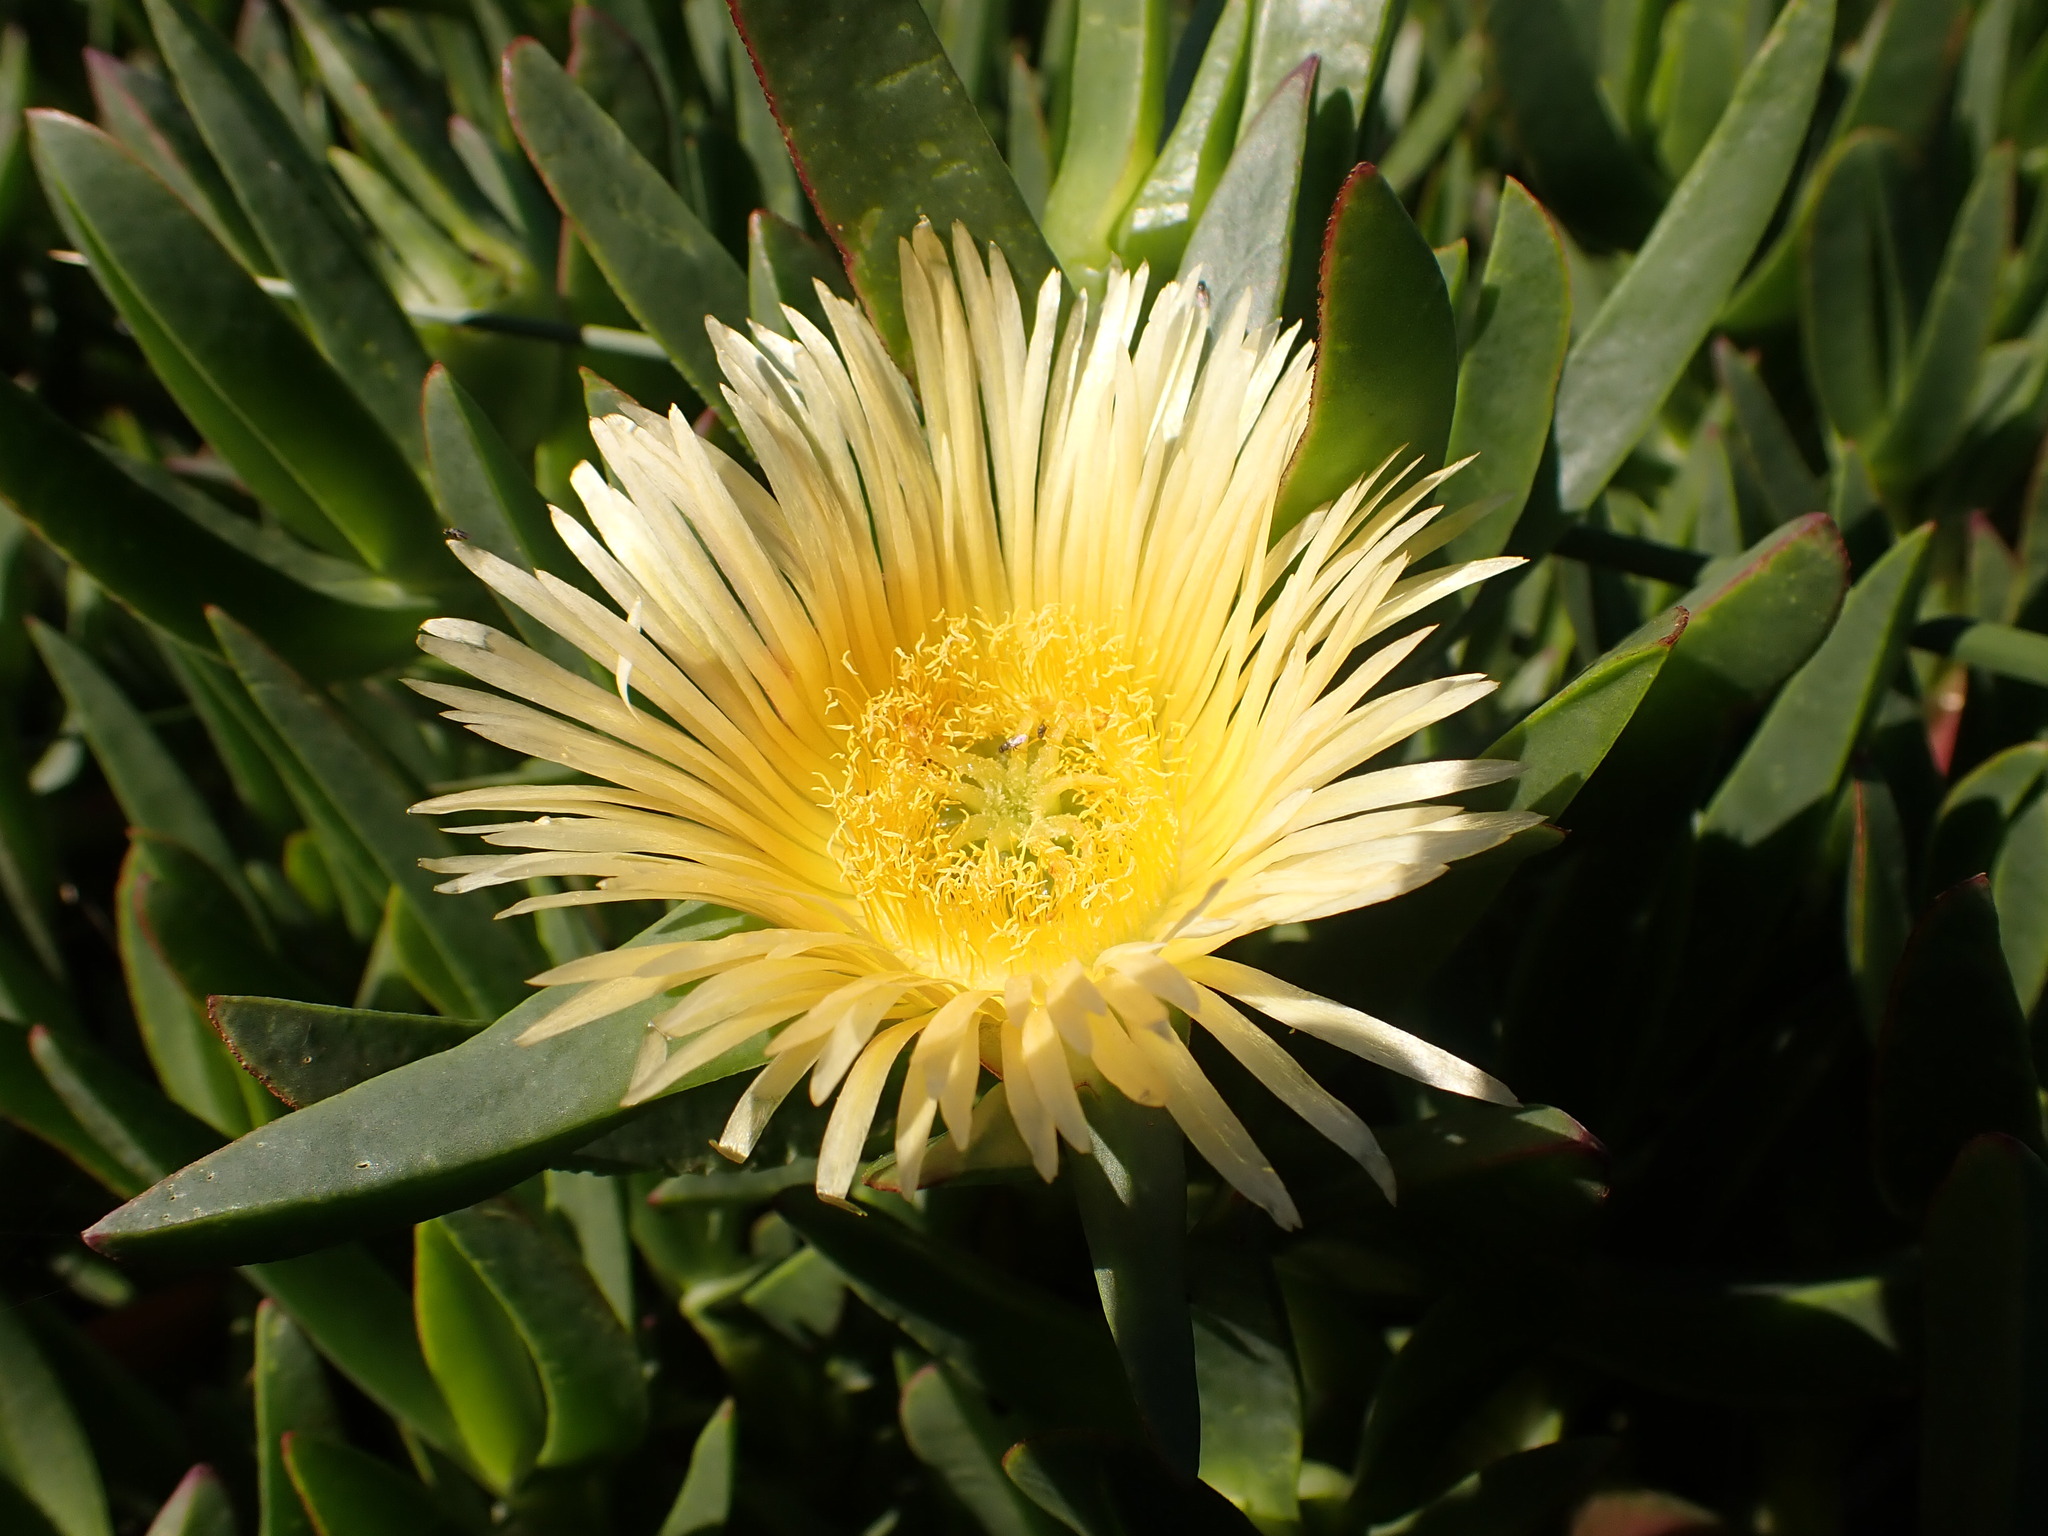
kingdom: Plantae
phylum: Tracheophyta
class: Magnoliopsida
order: Caryophyllales
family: Aizoaceae
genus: Carpobrotus
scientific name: Carpobrotus edulis
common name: Hottentot-fig
